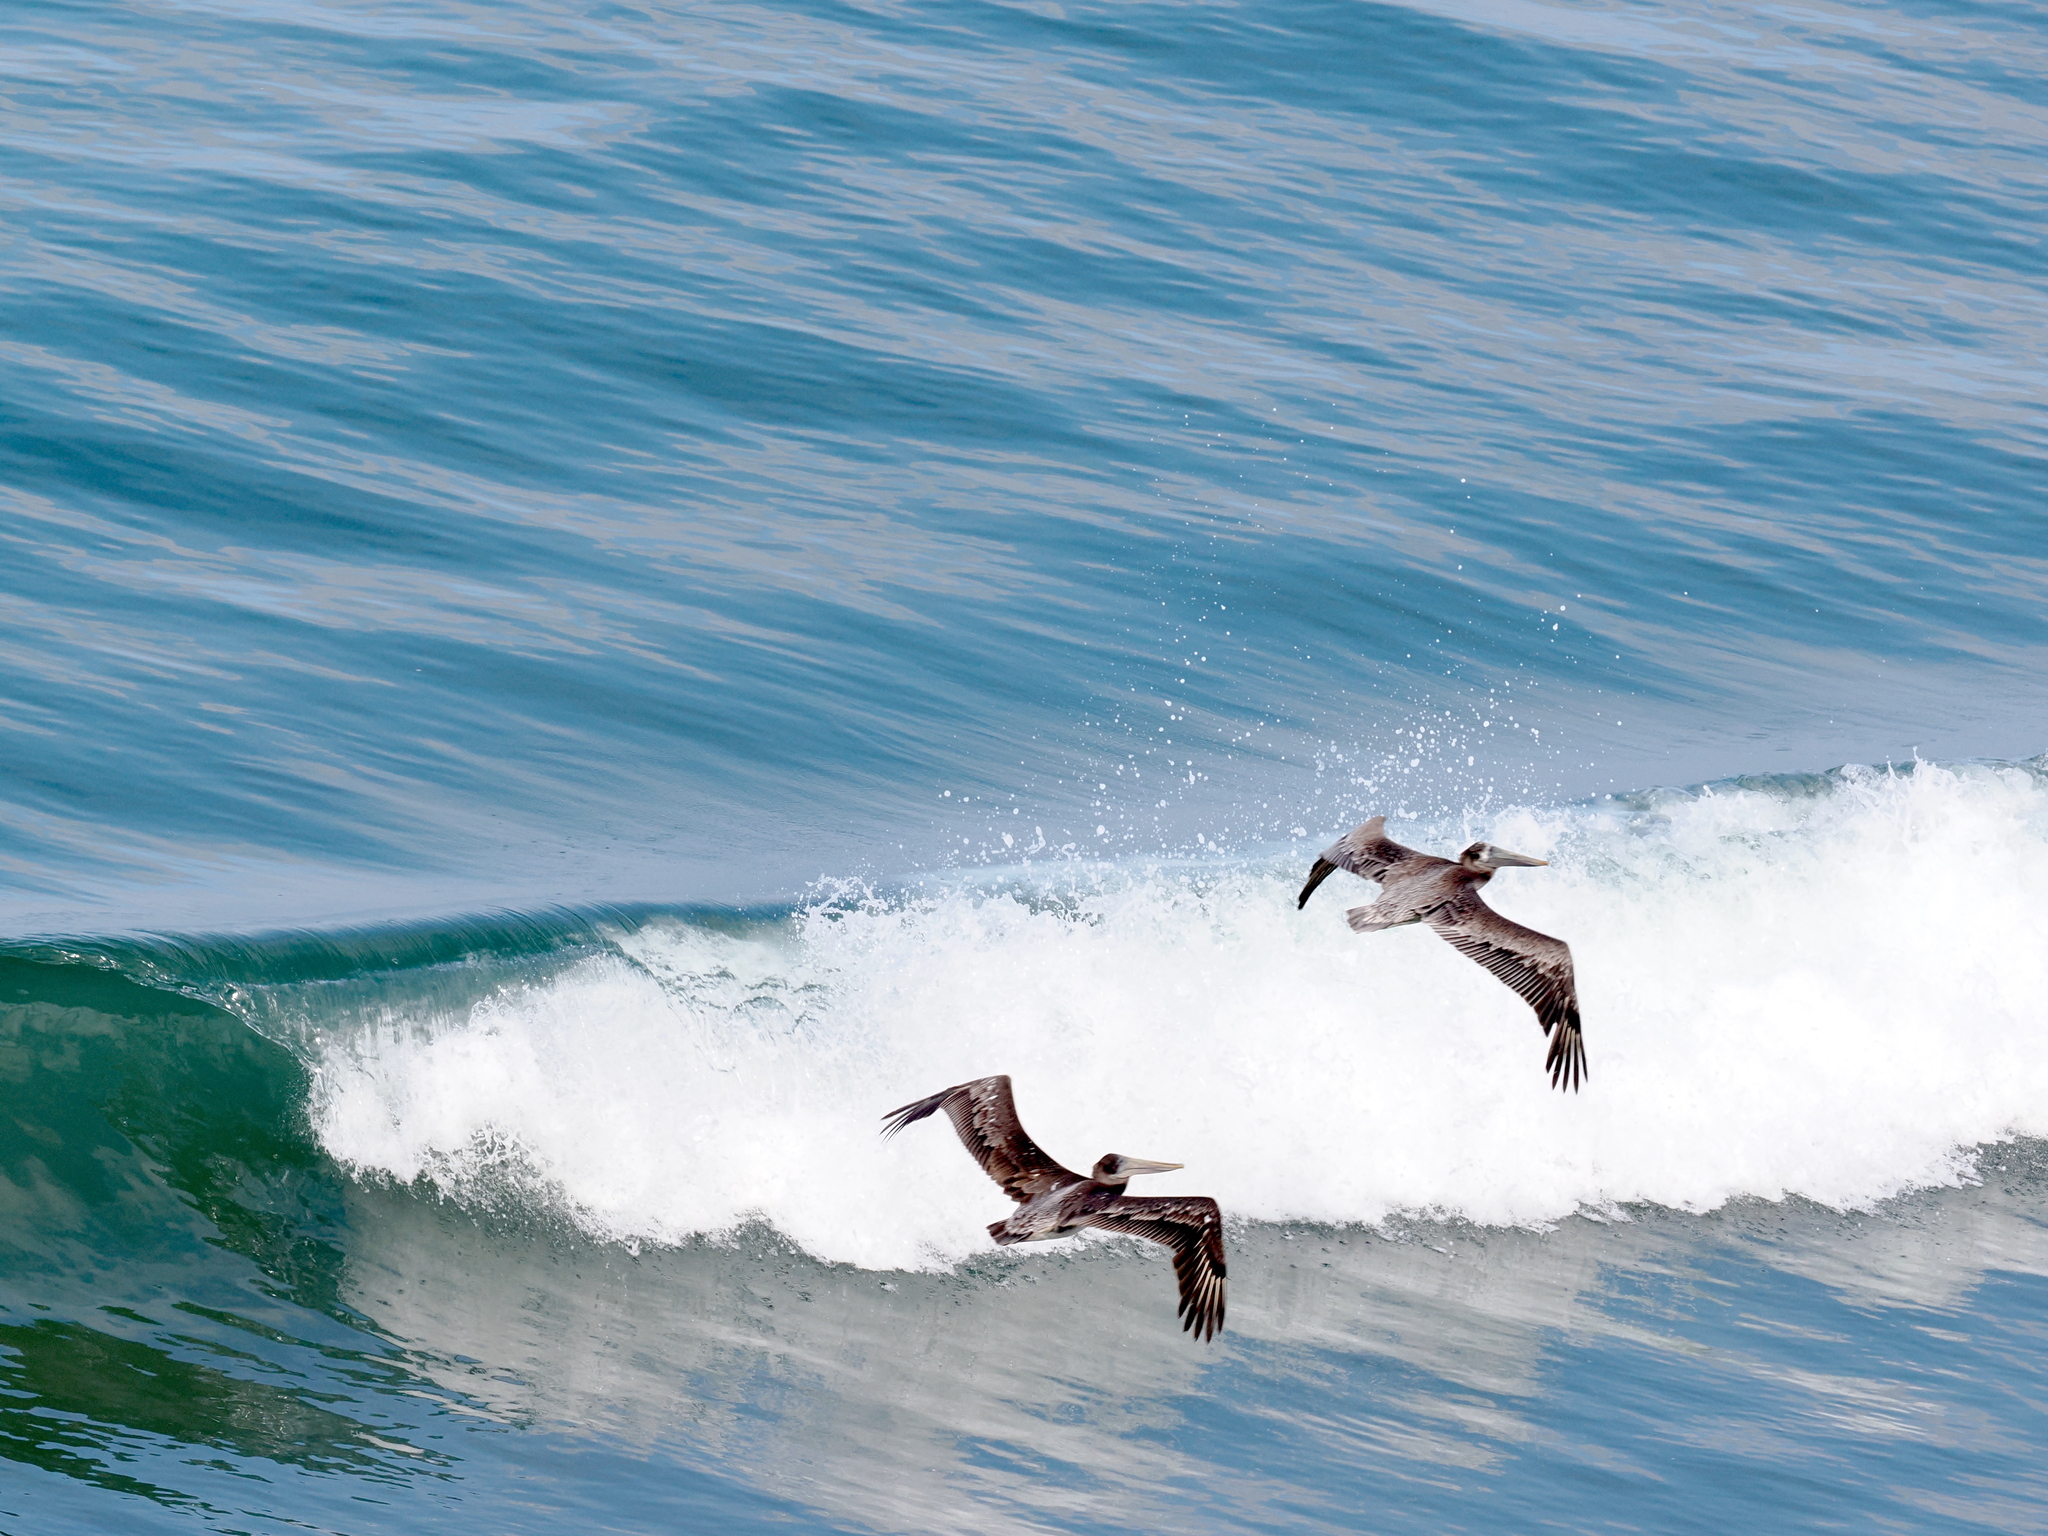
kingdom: Animalia
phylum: Chordata
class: Aves
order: Pelecaniformes
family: Pelecanidae
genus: Pelecanus
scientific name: Pelecanus occidentalis
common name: Brown pelican
